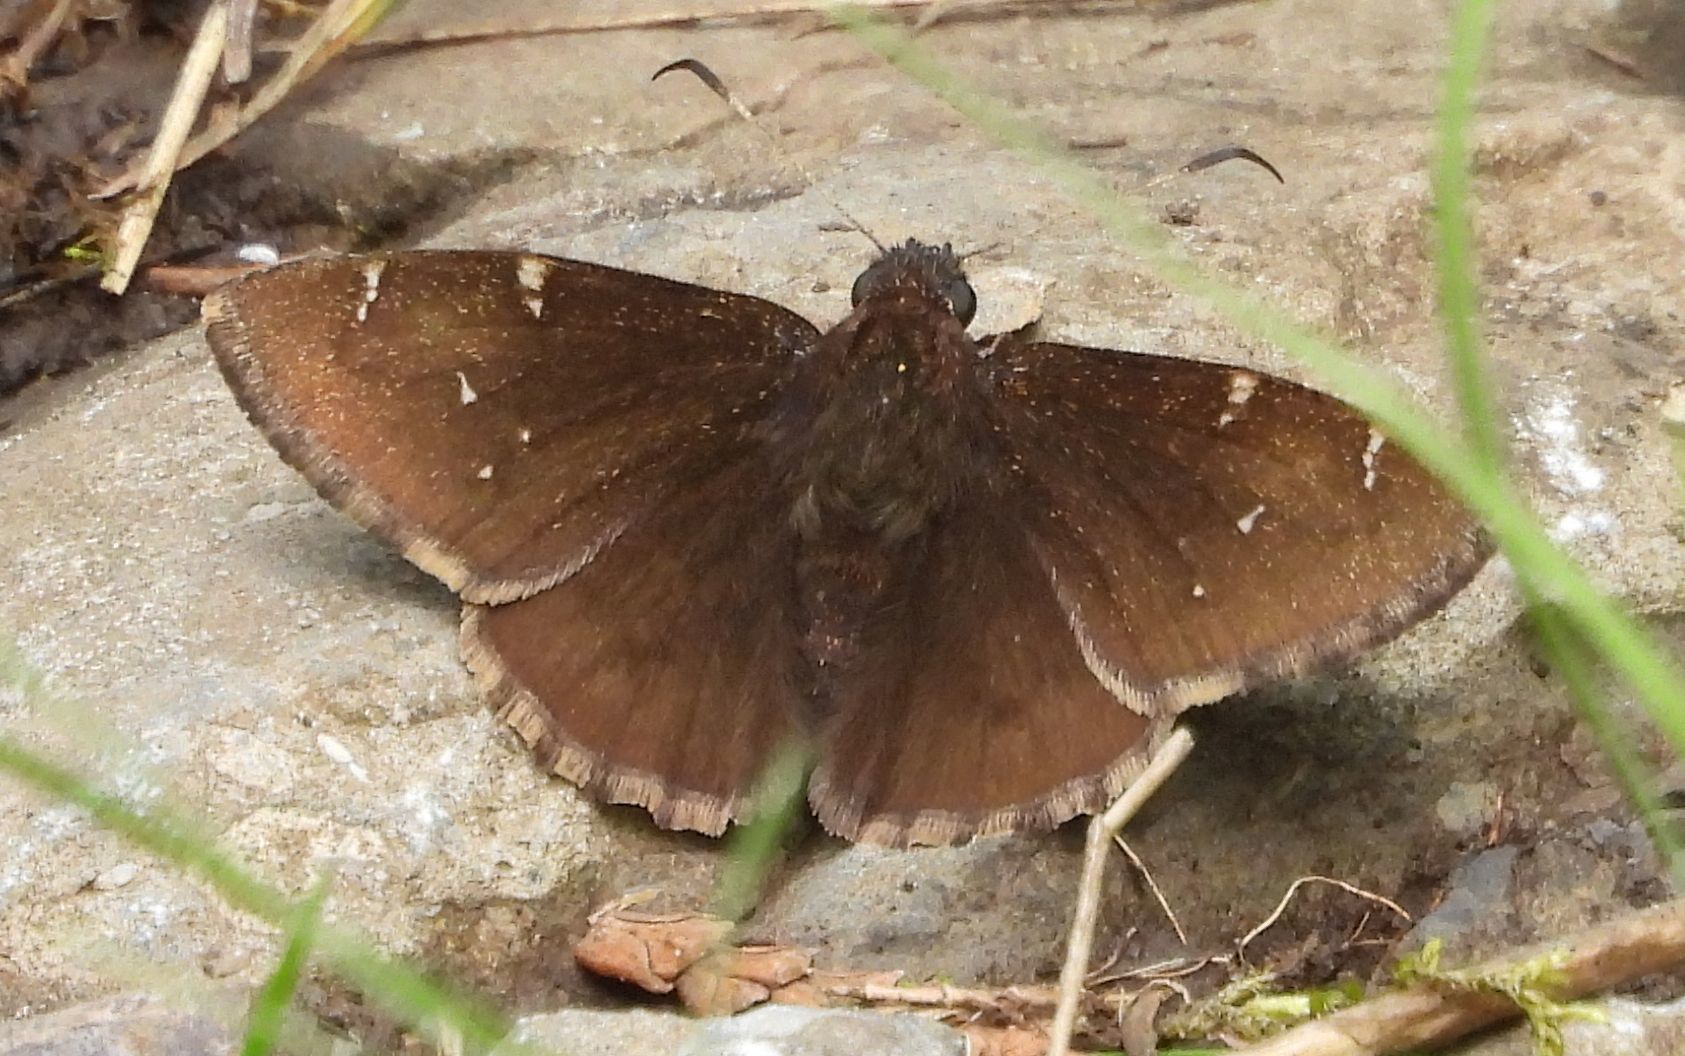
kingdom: Animalia
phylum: Arthropoda
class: Insecta
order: Lepidoptera
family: Hesperiidae
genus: Thorybes
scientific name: Thorybes pylades
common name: Northern cloudywing
